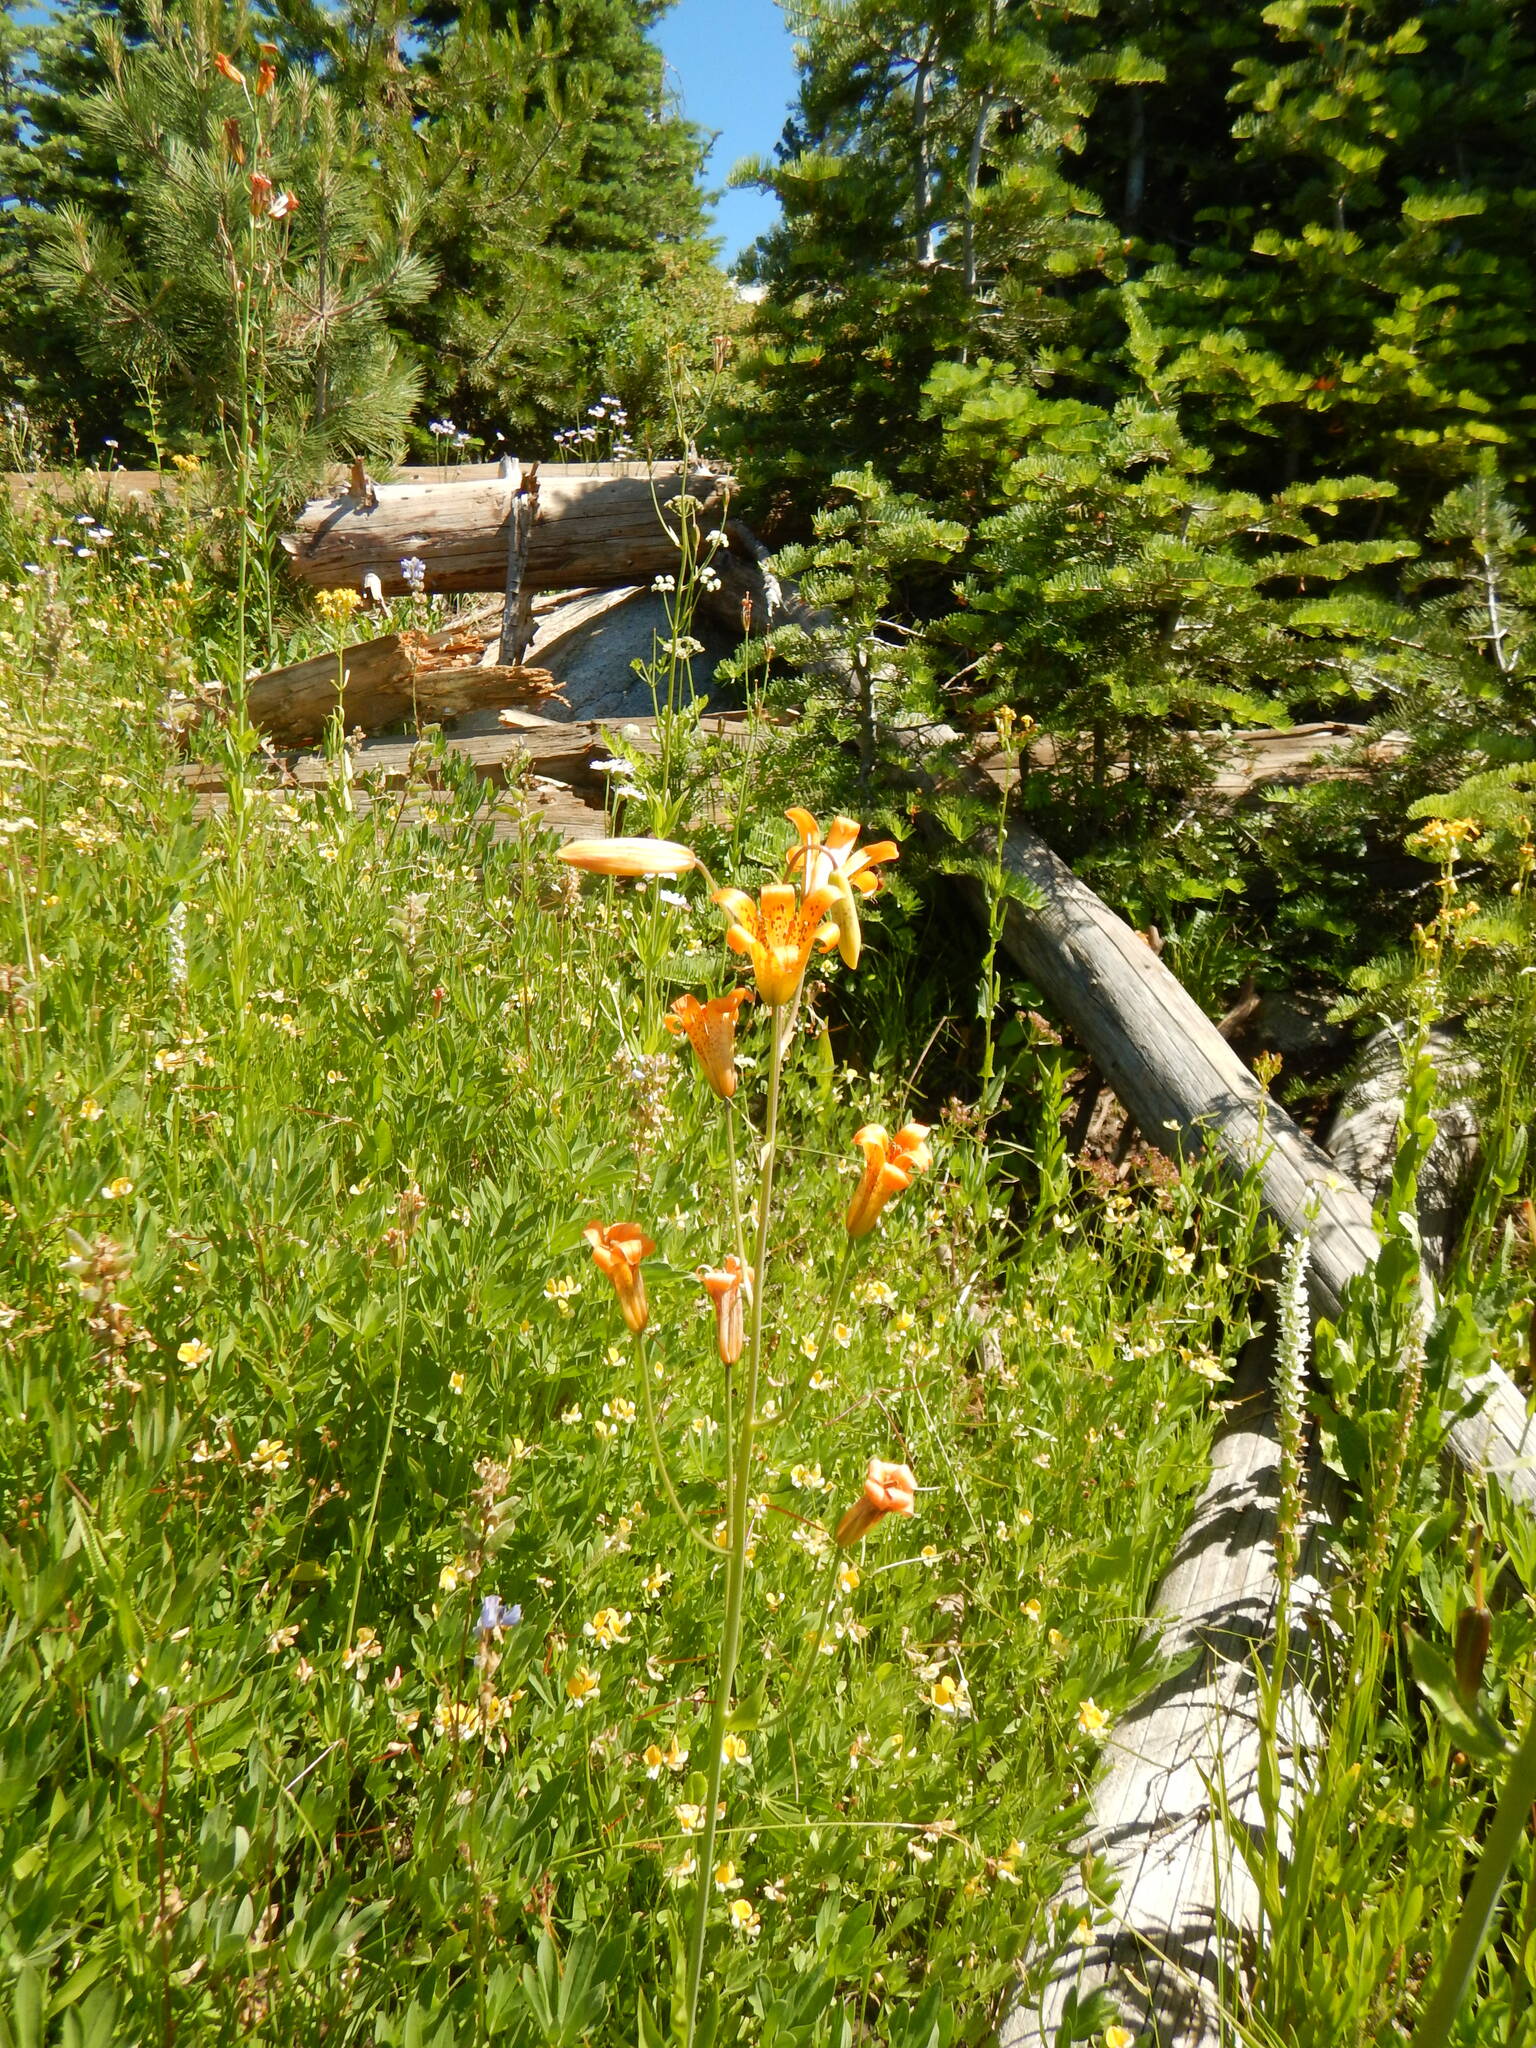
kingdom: Plantae
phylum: Tracheophyta
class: Liliopsida
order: Liliales
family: Liliaceae
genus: Lilium
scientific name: Lilium parvum
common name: Alpine lily
